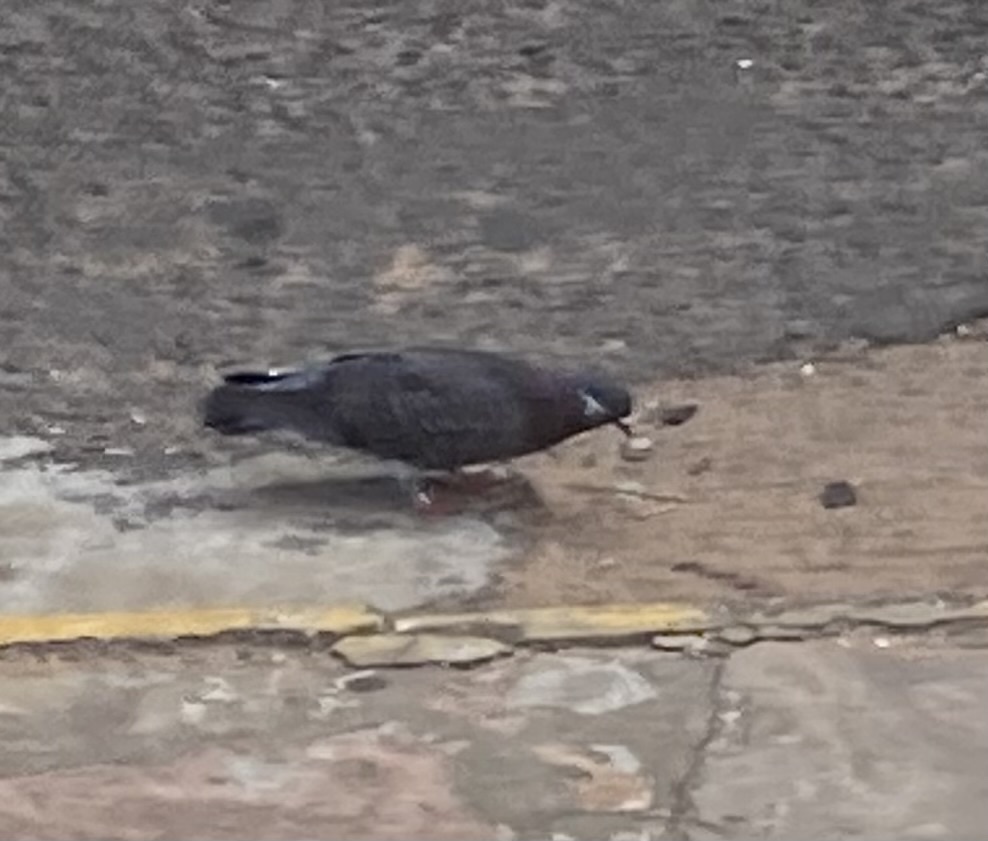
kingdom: Animalia
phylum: Chordata
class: Aves
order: Columbiformes
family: Columbidae
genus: Columba
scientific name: Columba livia
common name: Rock pigeon
